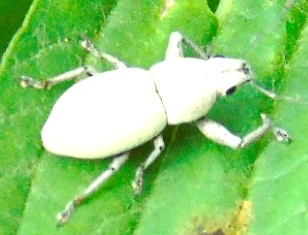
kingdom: Animalia
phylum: Arthropoda
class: Insecta
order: Coleoptera
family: Curculionidae
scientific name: Curculionidae
